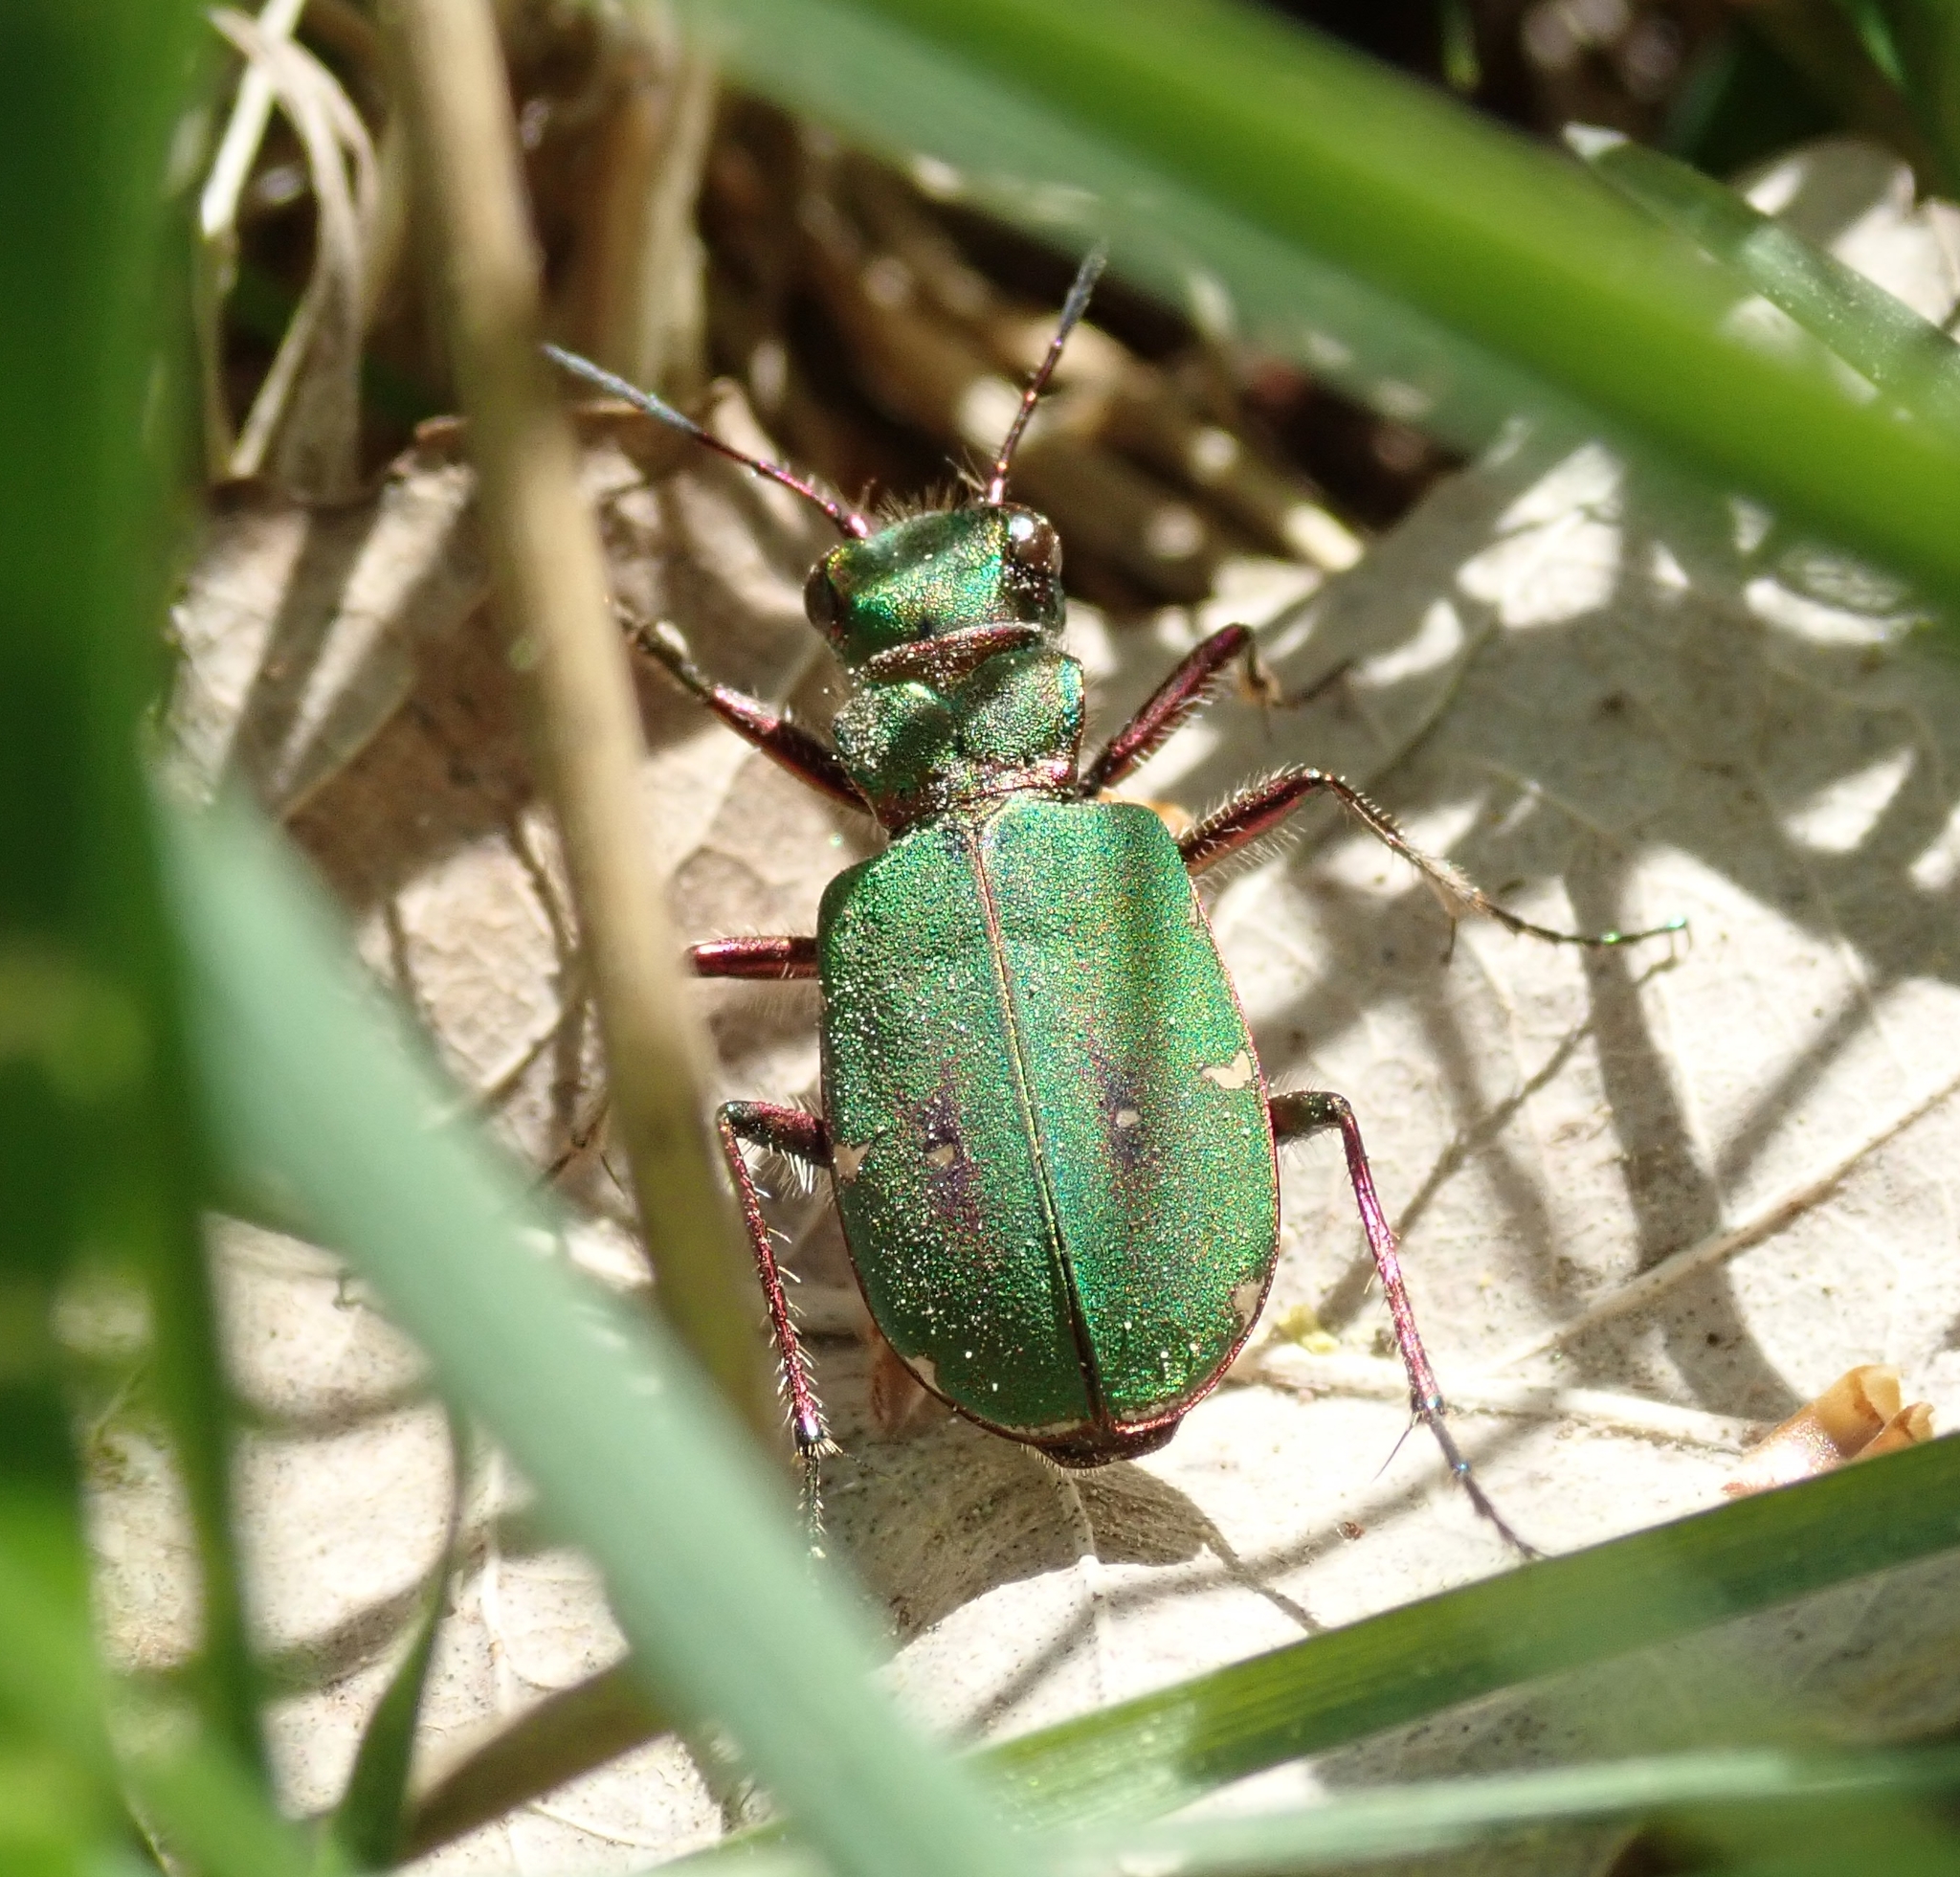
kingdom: Animalia
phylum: Arthropoda
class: Insecta
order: Coleoptera
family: Carabidae
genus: Cicindela
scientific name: Cicindela campestris
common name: Common tiger beetle
